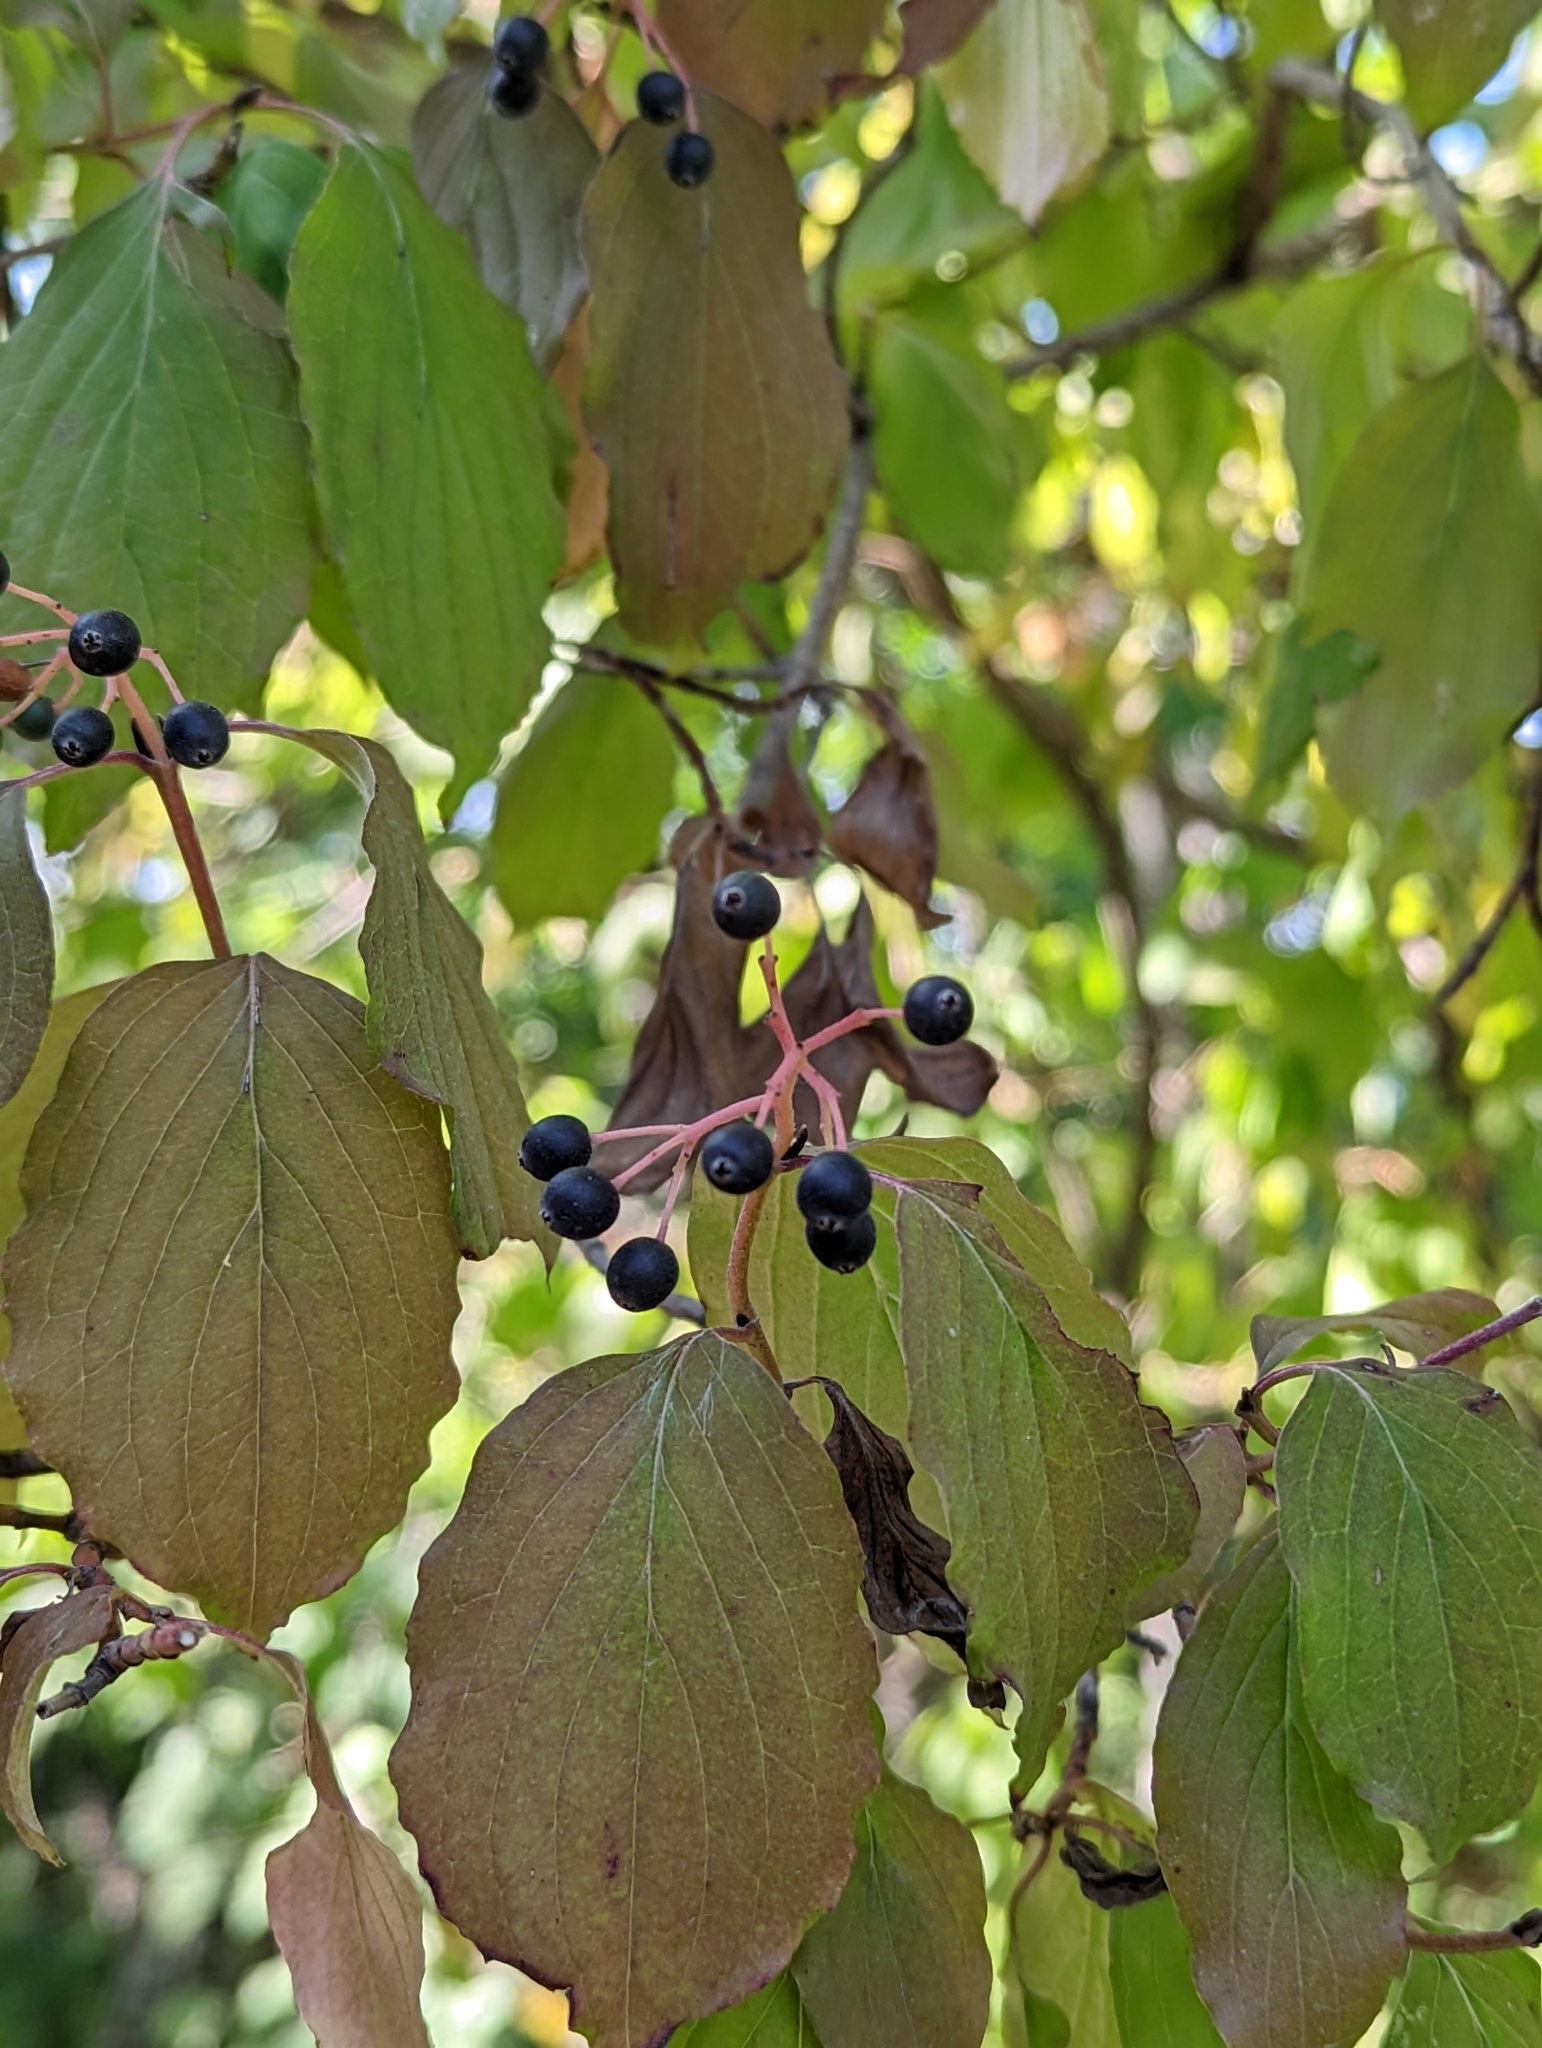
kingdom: Plantae
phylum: Tracheophyta
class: Magnoliopsida
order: Cornales
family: Cornaceae
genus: Cornus
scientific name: Cornus sanguinea
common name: Dogwood
